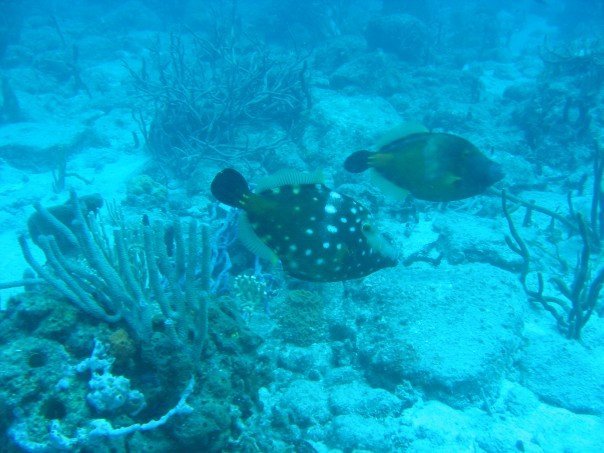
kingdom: Animalia
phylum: Chordata
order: Tetraodontiformes
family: Monacanthidae
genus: Cantherhines
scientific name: Cantherhines macrocerus
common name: Whitespotted filefish
